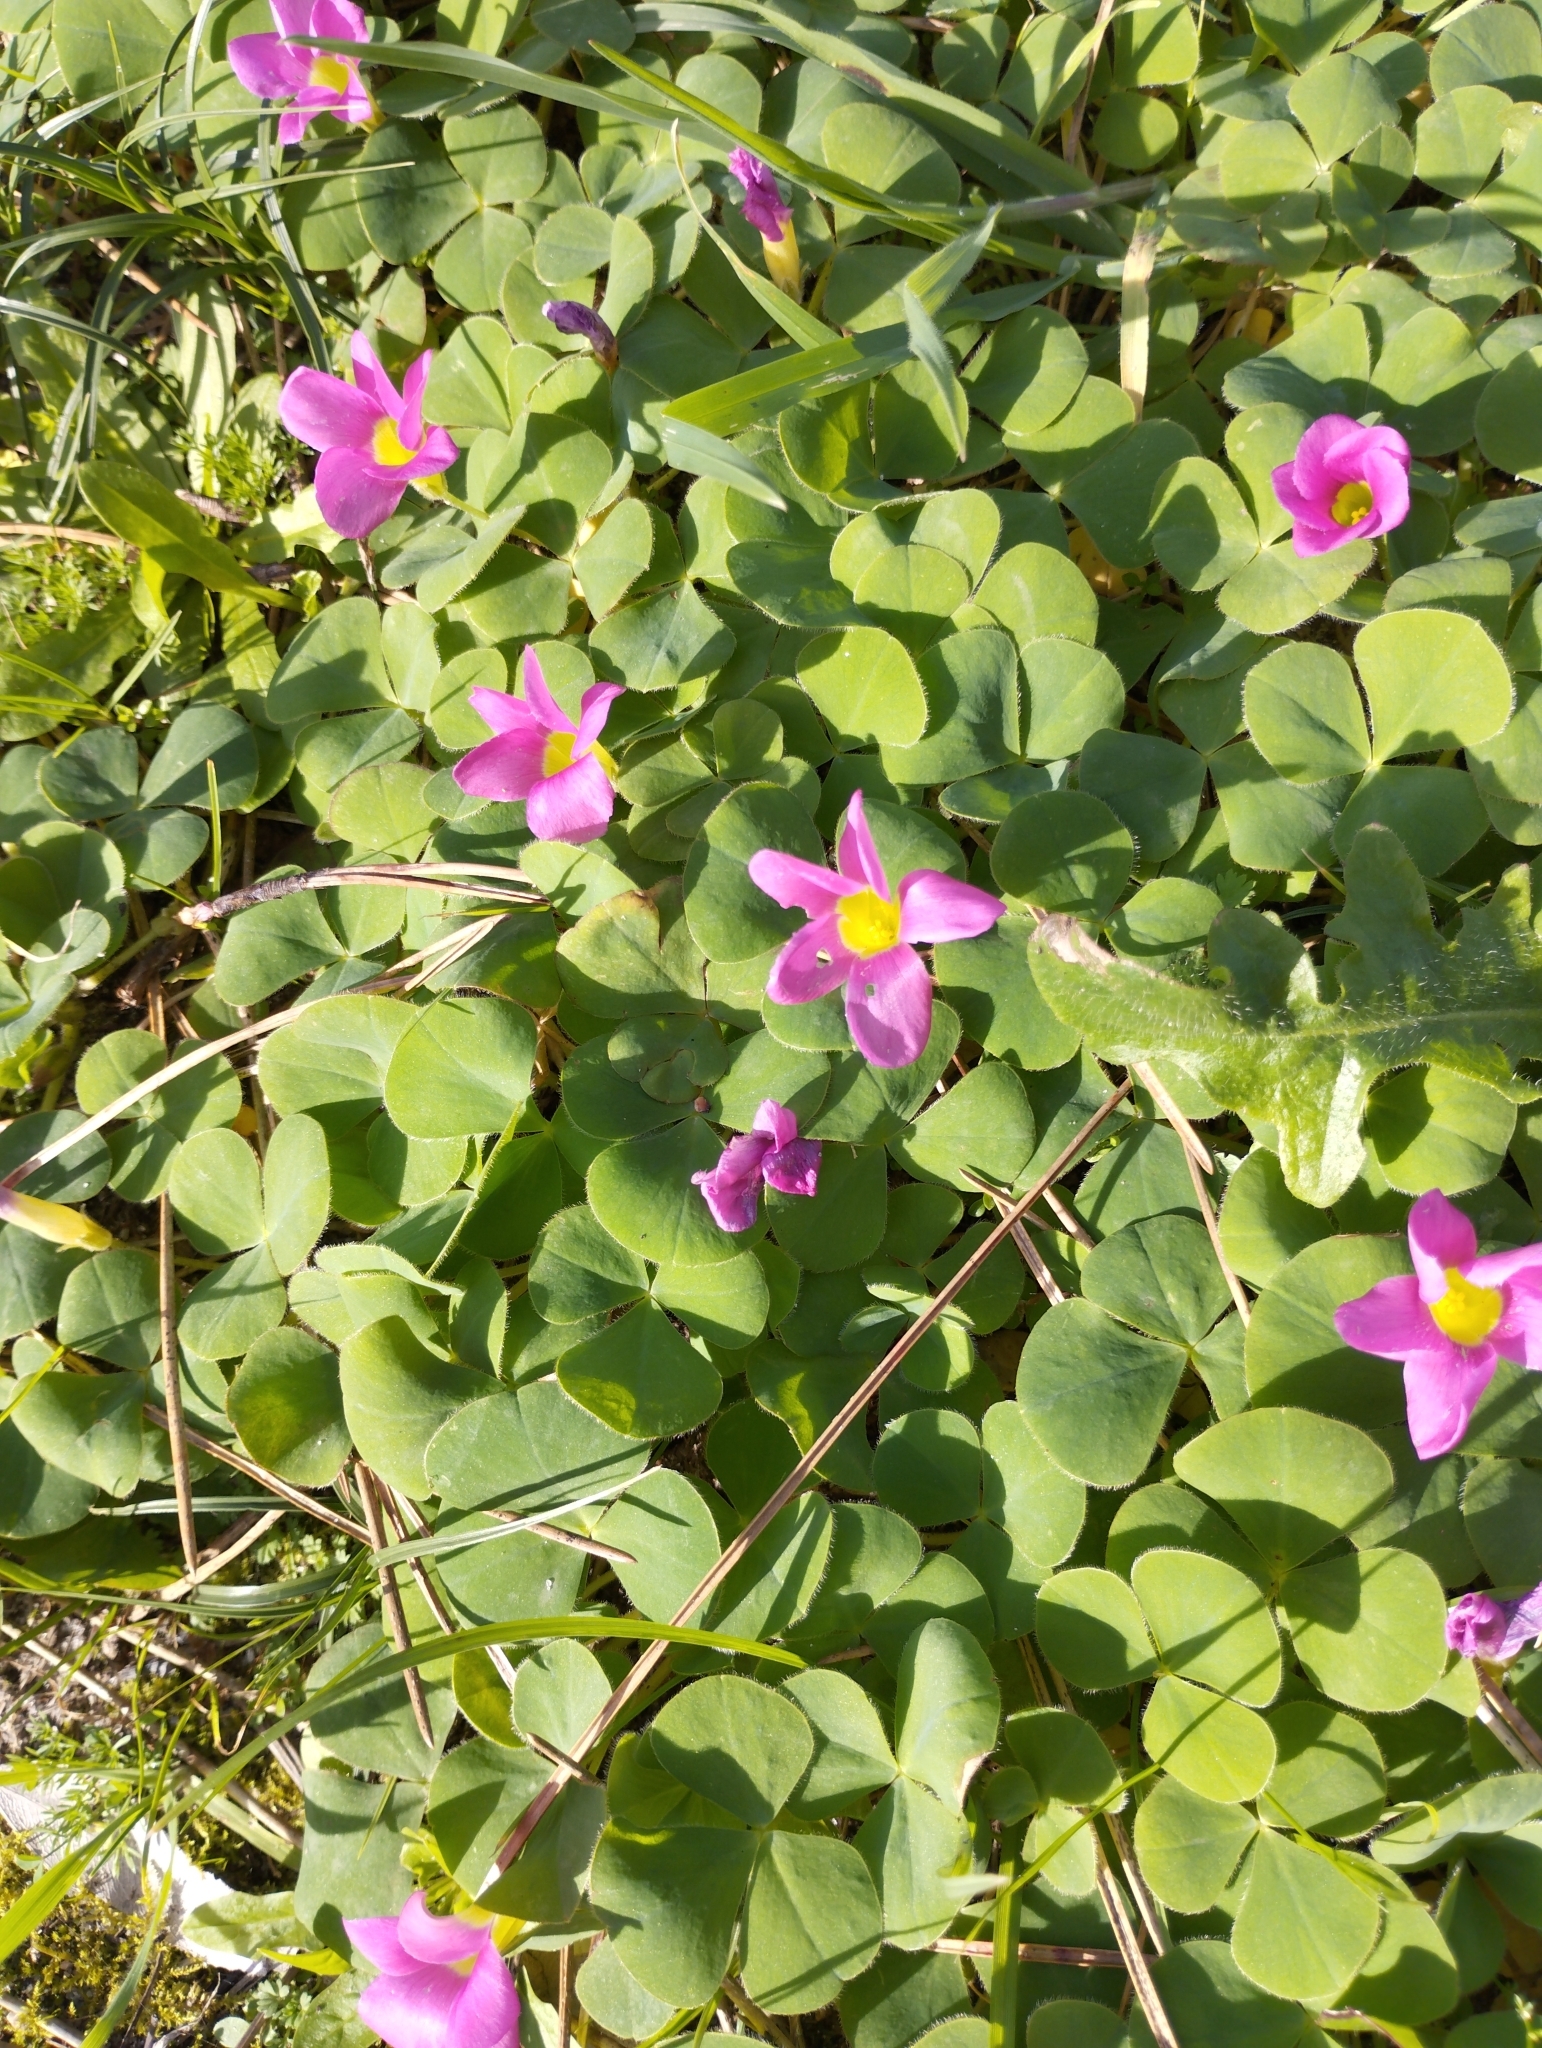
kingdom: Plantae
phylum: Tracheophyta
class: Magnoliopsida
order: Oxalidales
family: Oxalidaceae
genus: Oxalis
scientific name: Oxalis purpurea
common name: Purple woodsorrel
